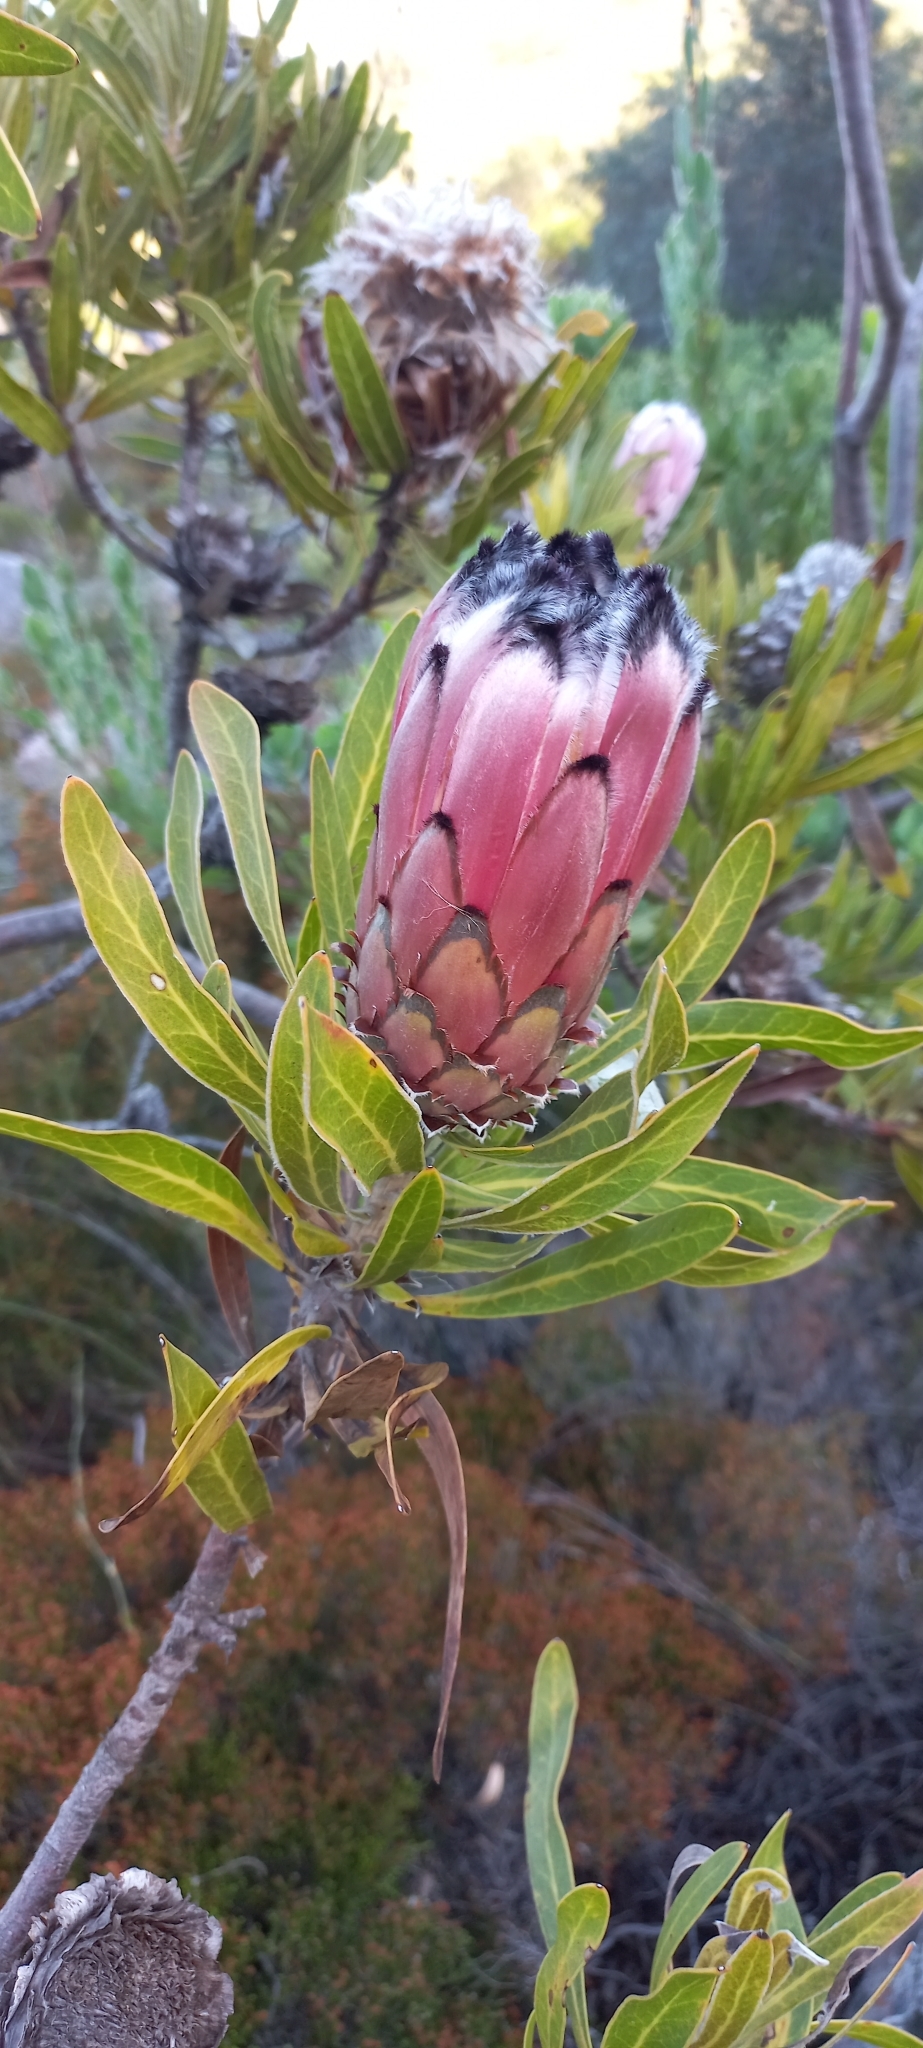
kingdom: Plantae
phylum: Tracheophyta
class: Magnoliopsida
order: Proteales
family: Proteaceae
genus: Protea
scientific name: Protea neriifolia
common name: Blue sugarbush
